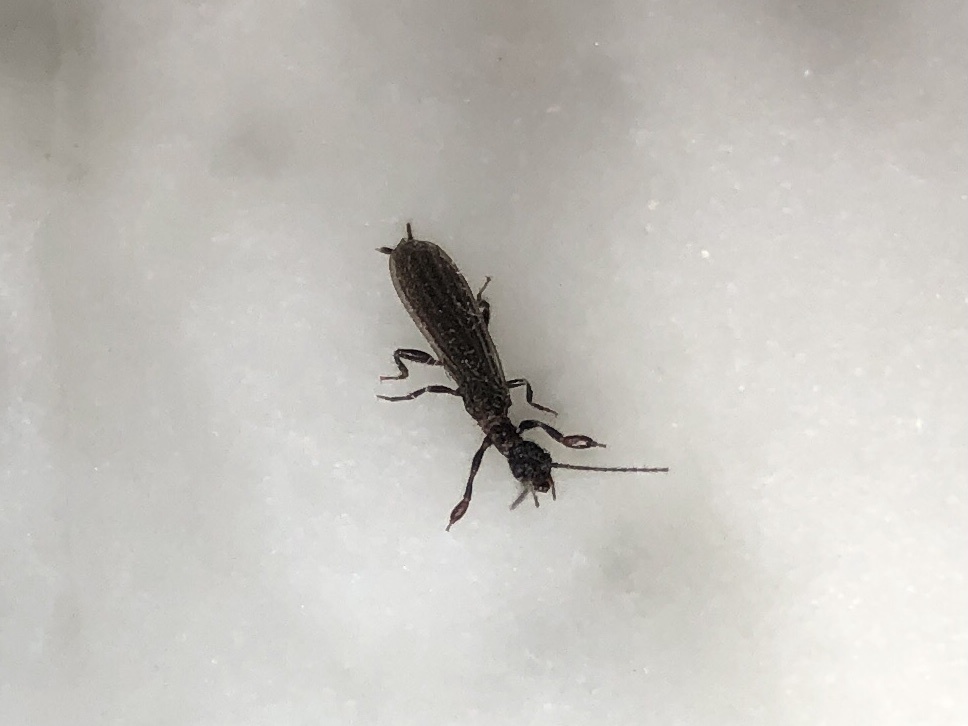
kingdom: Animalia
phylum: Arthropoda
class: Insecta
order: Embioptera
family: Oligotomidae
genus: Oligotoma
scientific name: Oligotoma nigra
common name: Black webspinner
